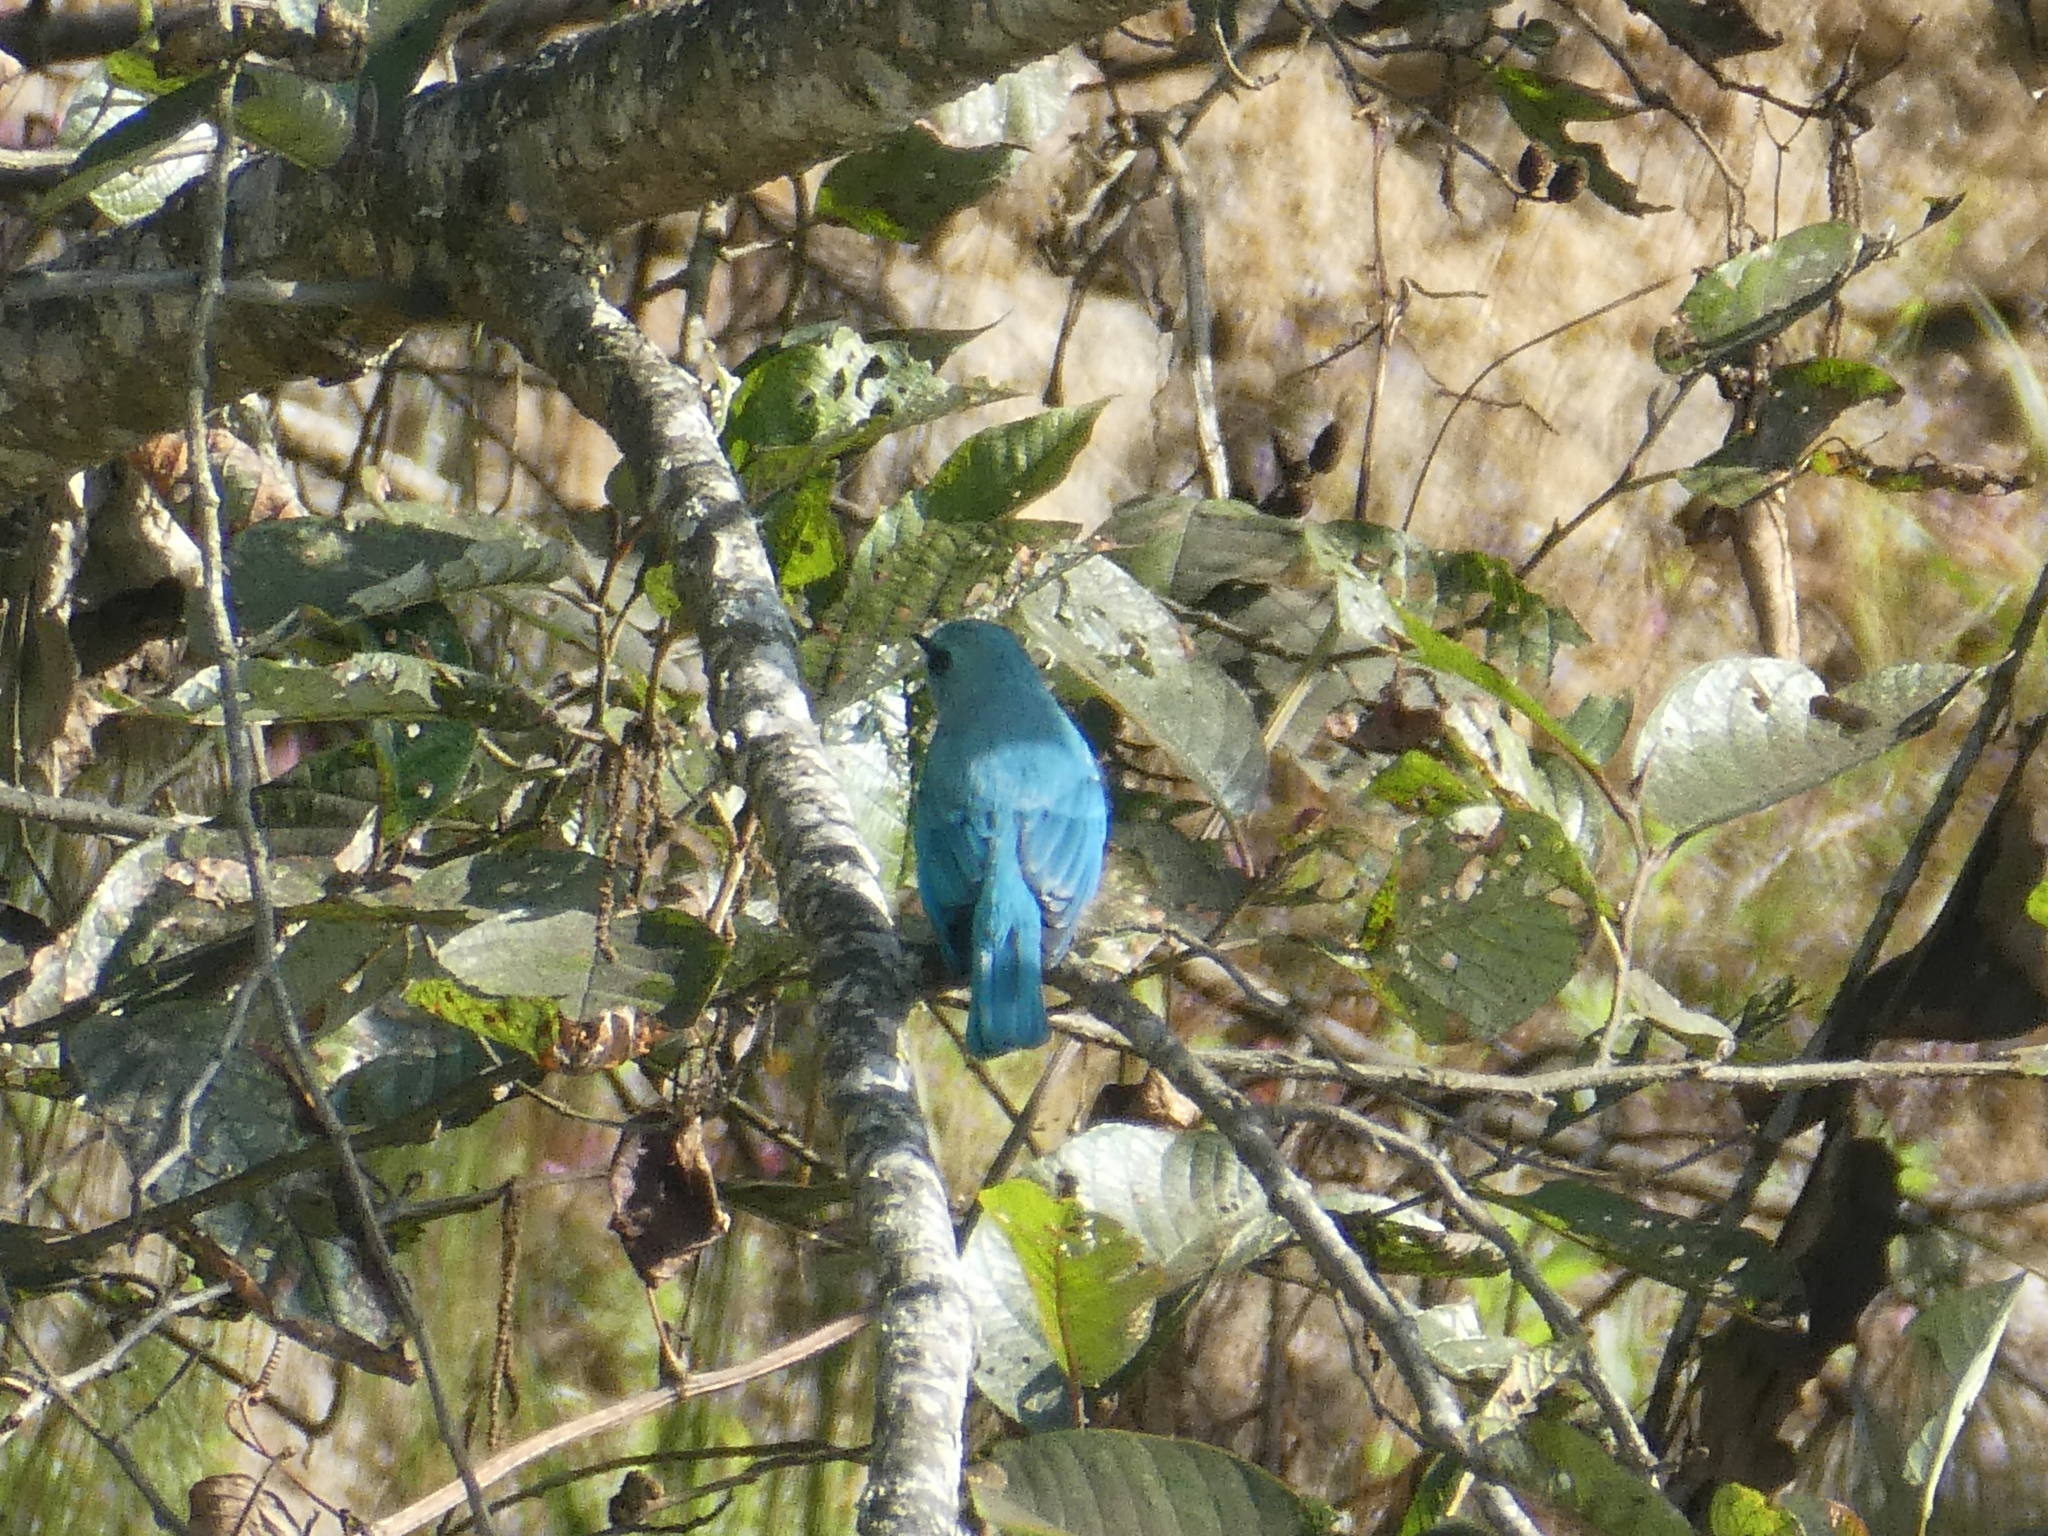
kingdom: Animalia
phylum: Chordata
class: Aves
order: Passeriformes
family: Muscicapidae
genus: Eumyias
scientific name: Eumyias thalassinus
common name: Verditer flycatcher
